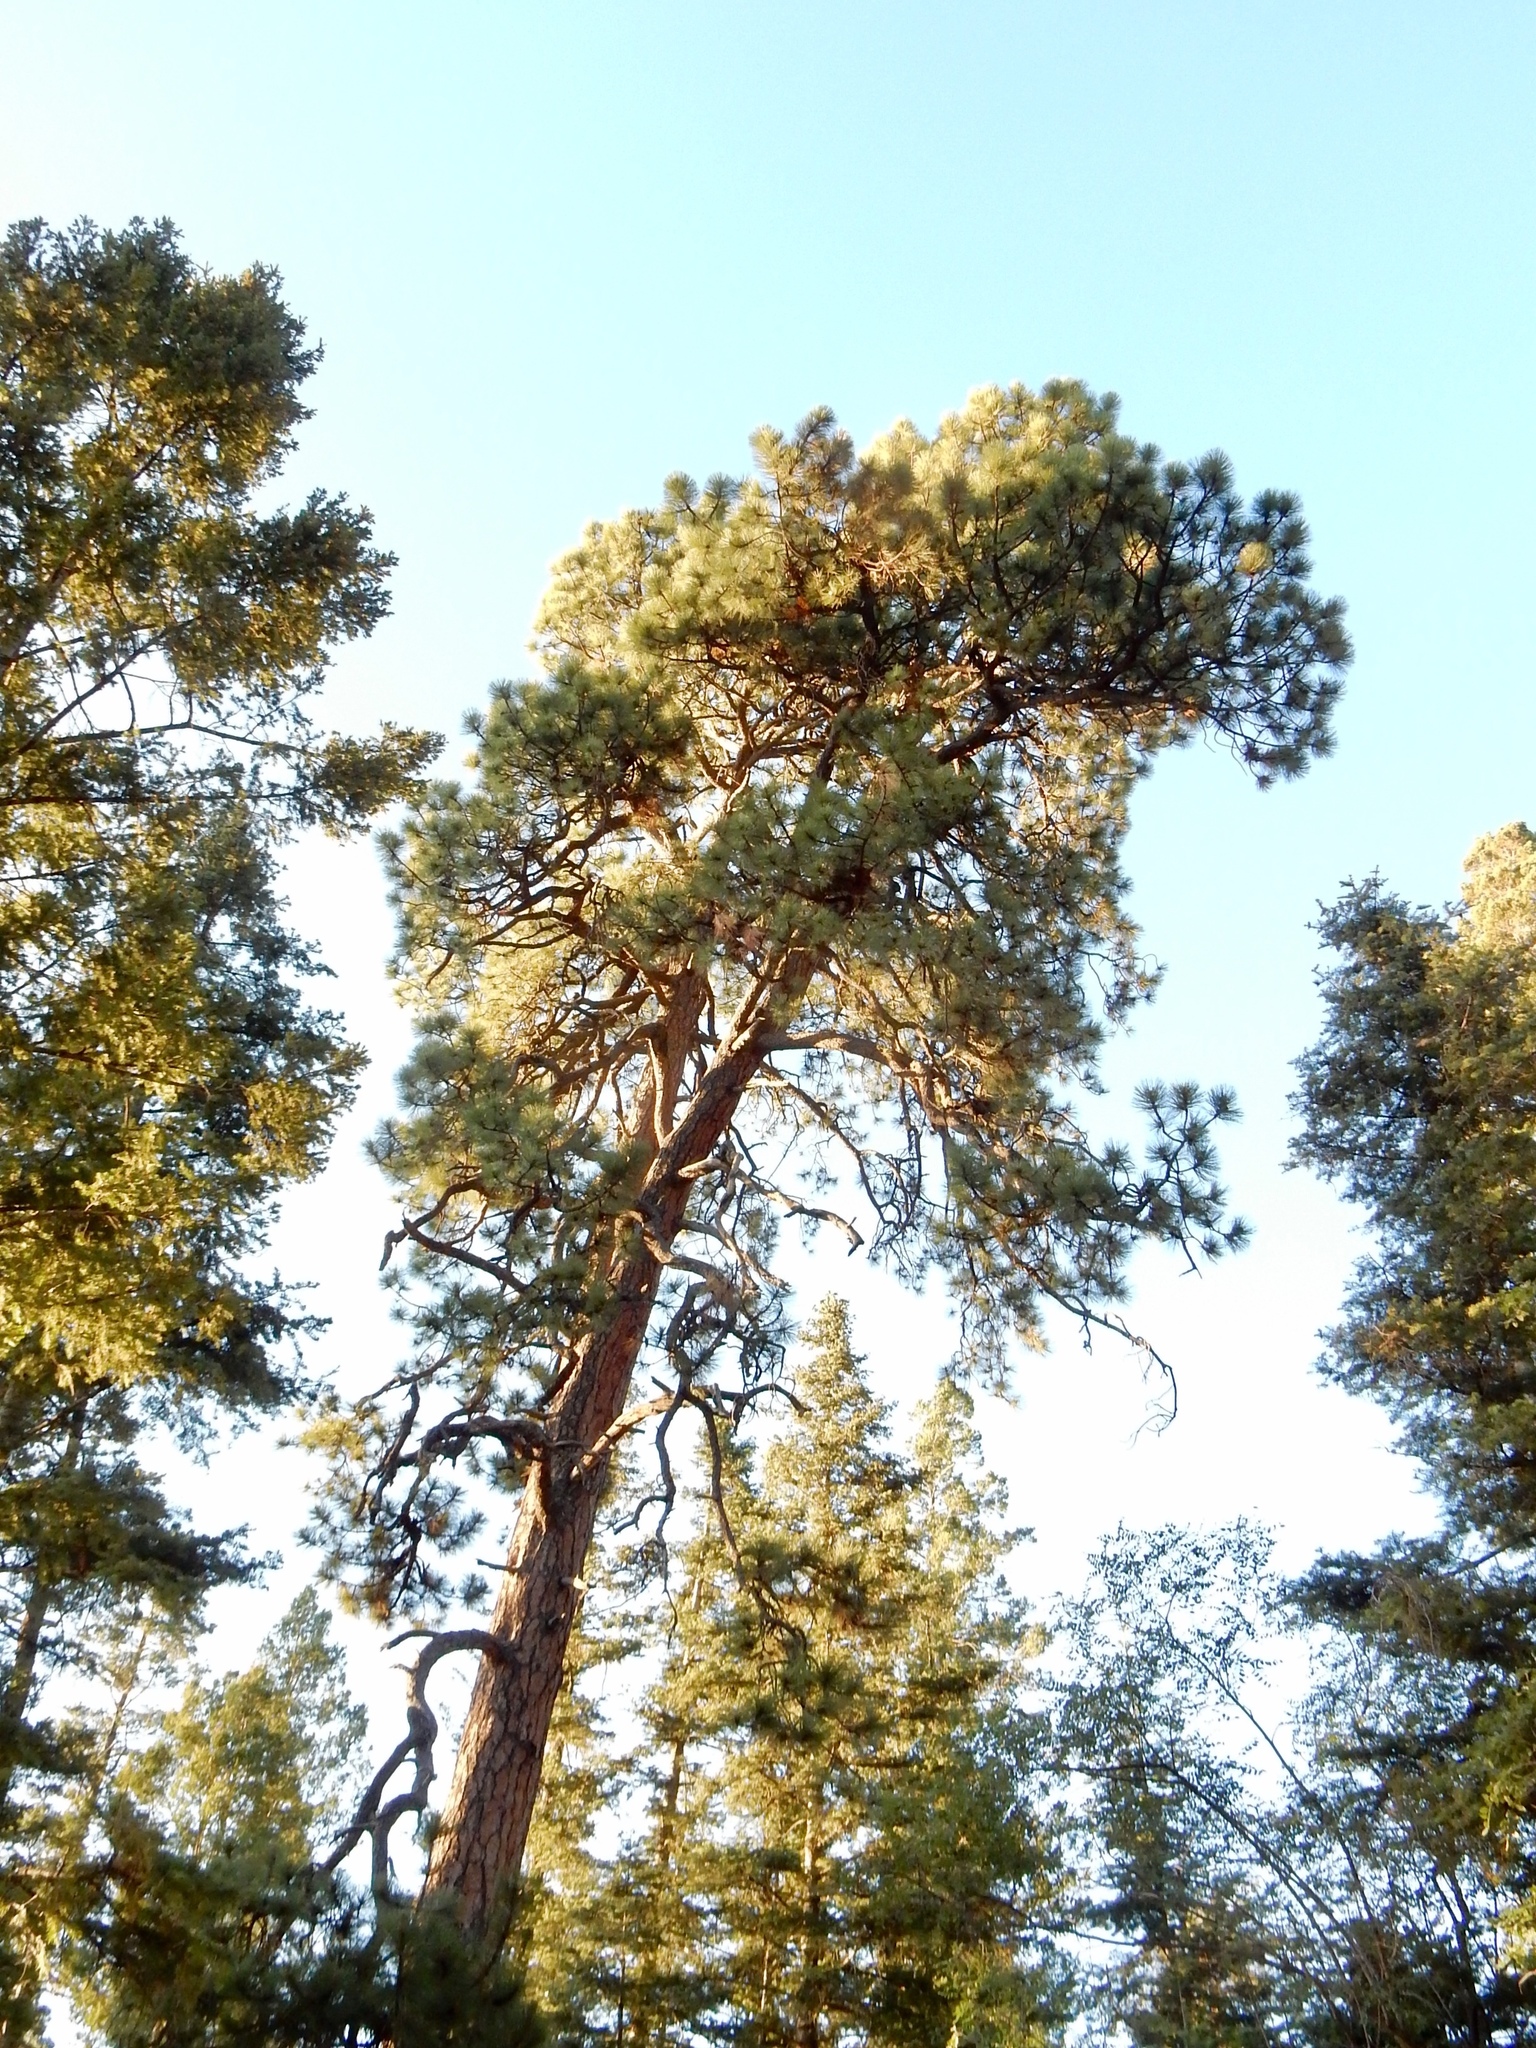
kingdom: Plantae
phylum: Tracheophyta
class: Pinopsida
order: Pinales
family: Pinaceae
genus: Pinus
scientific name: Pinus ponderosa
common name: Western yellow-pine
